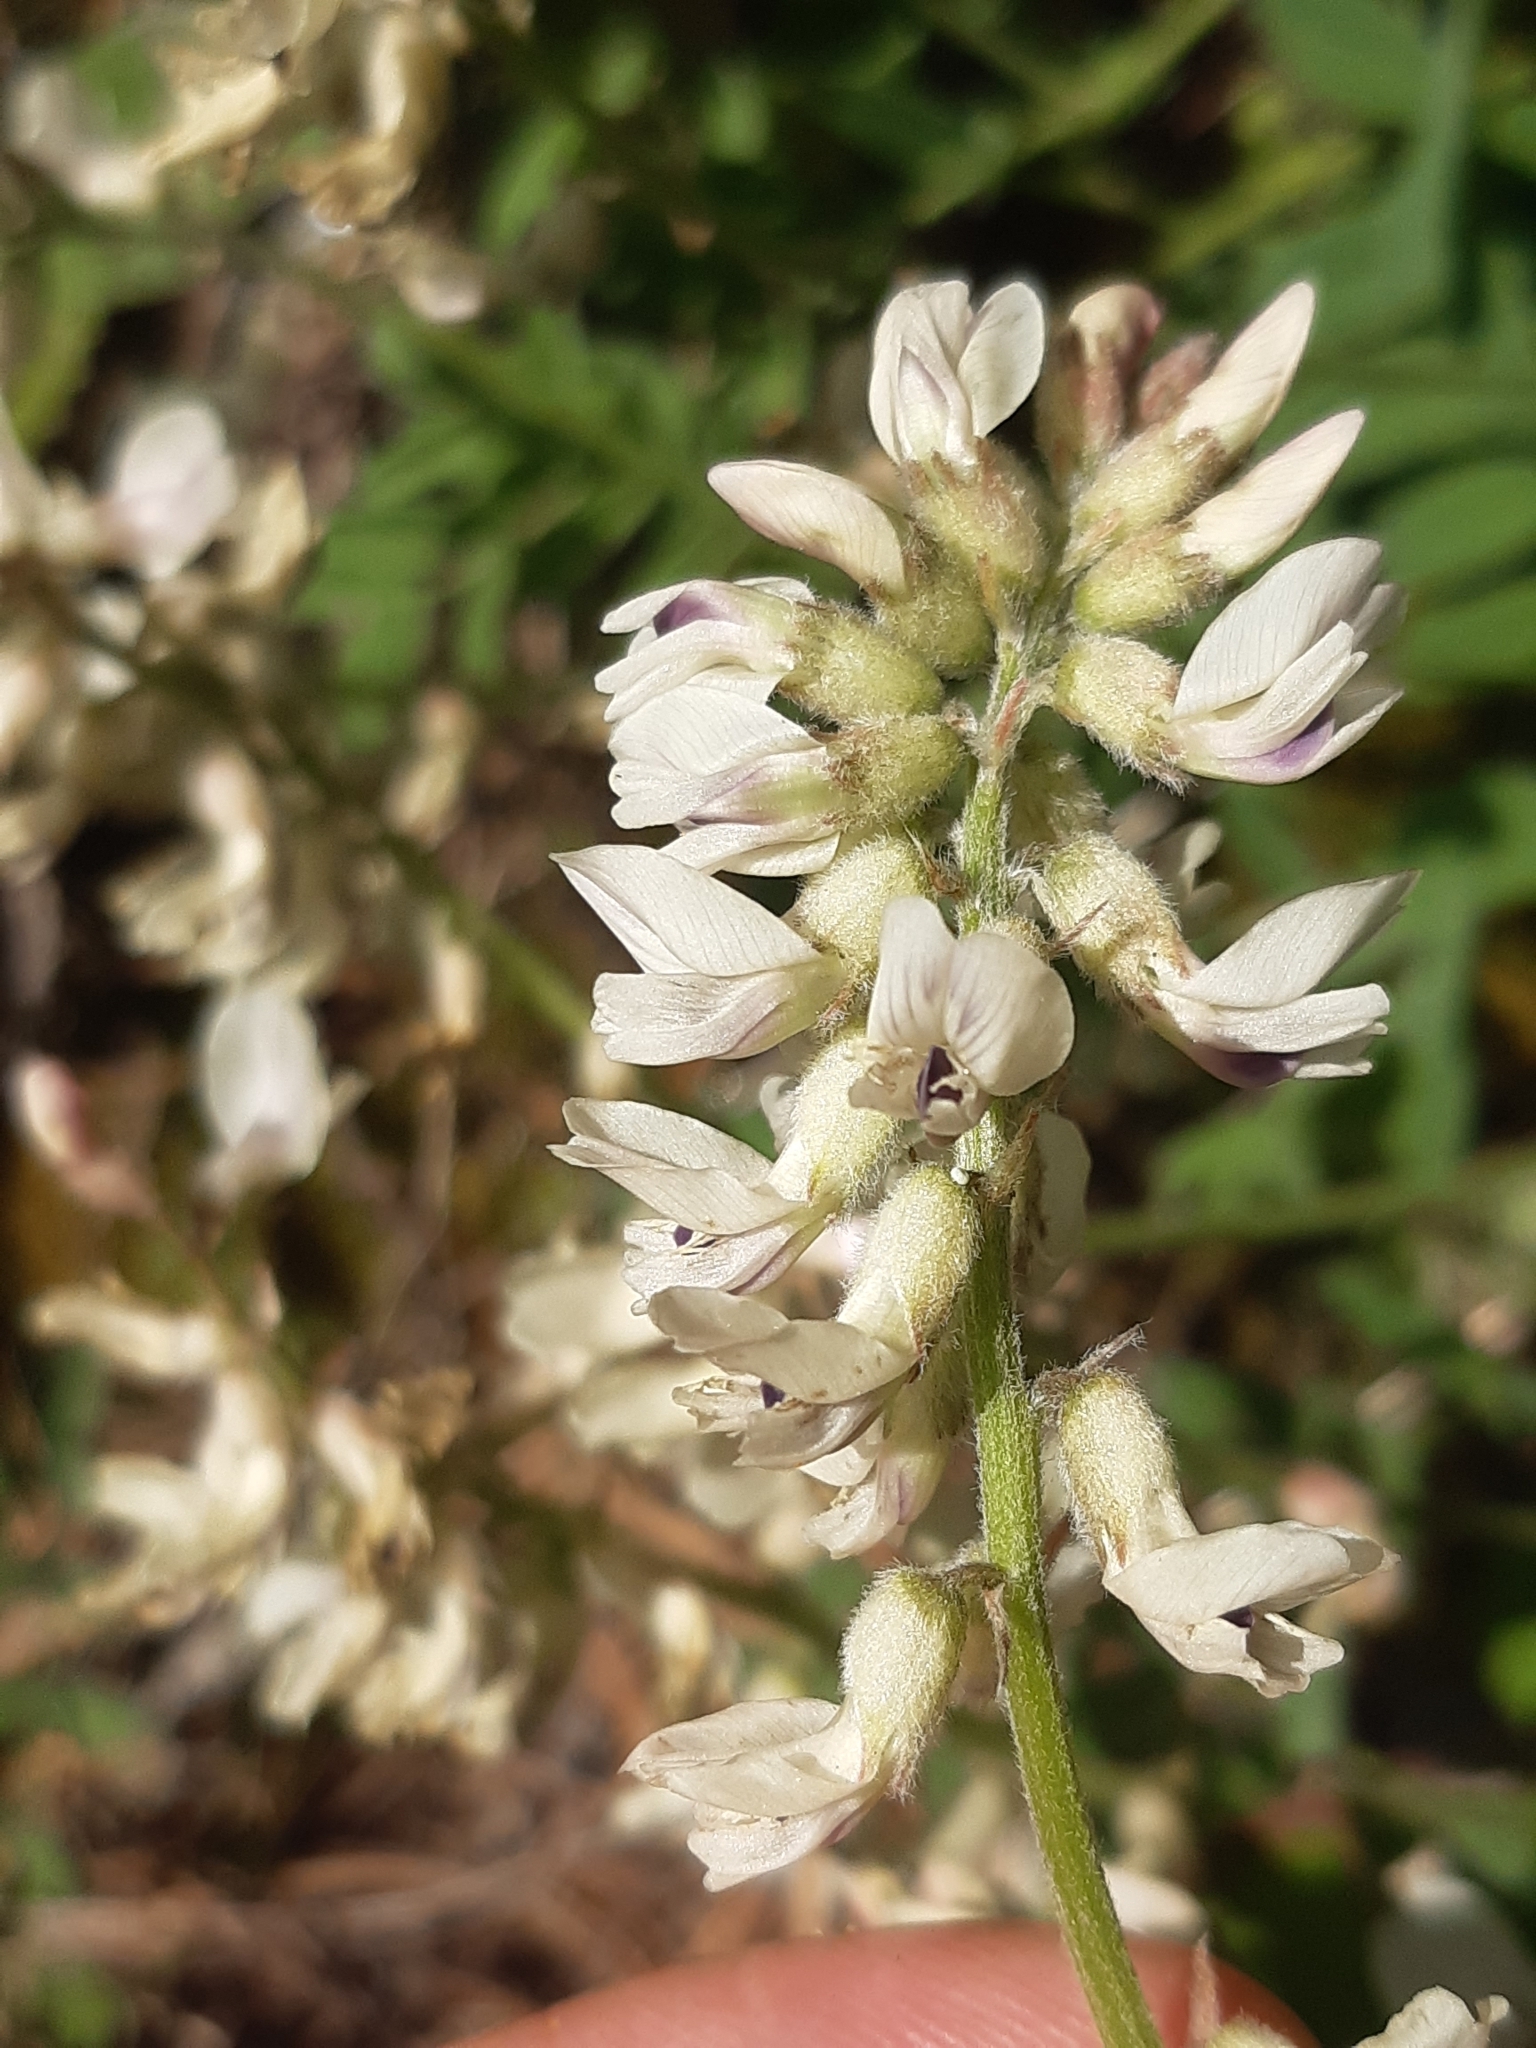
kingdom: Plantae
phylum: Tracheophyta
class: Magnoliopsida
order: Fabales
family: Fabaceae
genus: Astragalus
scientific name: Astragalus australis
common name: Indian milk-vetch
